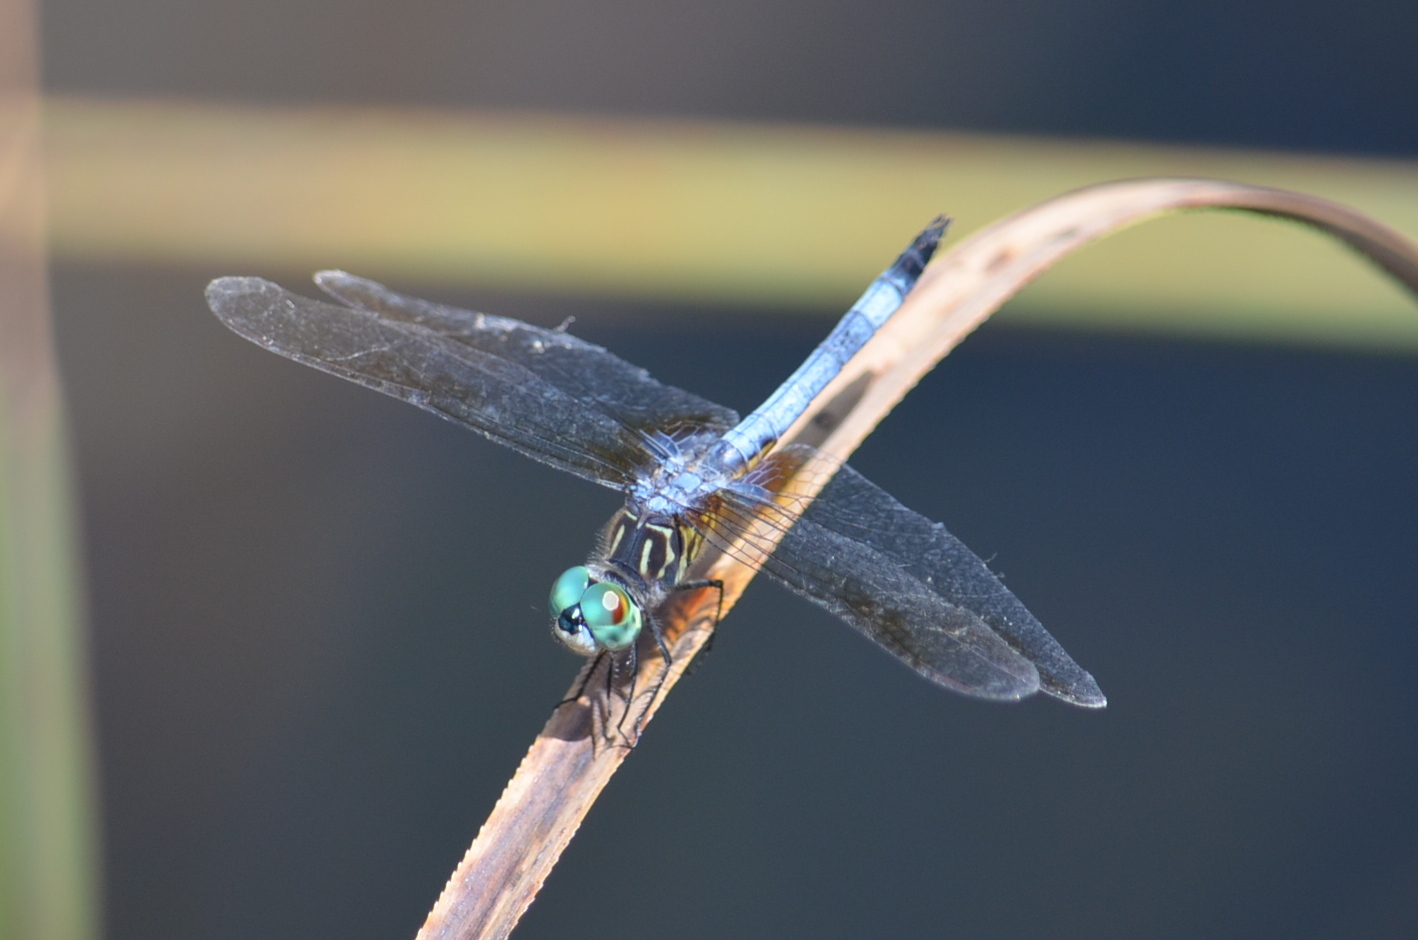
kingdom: Animalia
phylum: Arthropoda
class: Insecta
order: Odonata
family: Libellulidae
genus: Pachydiplax
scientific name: Pachydiplax longipennis
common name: Blue dasher
